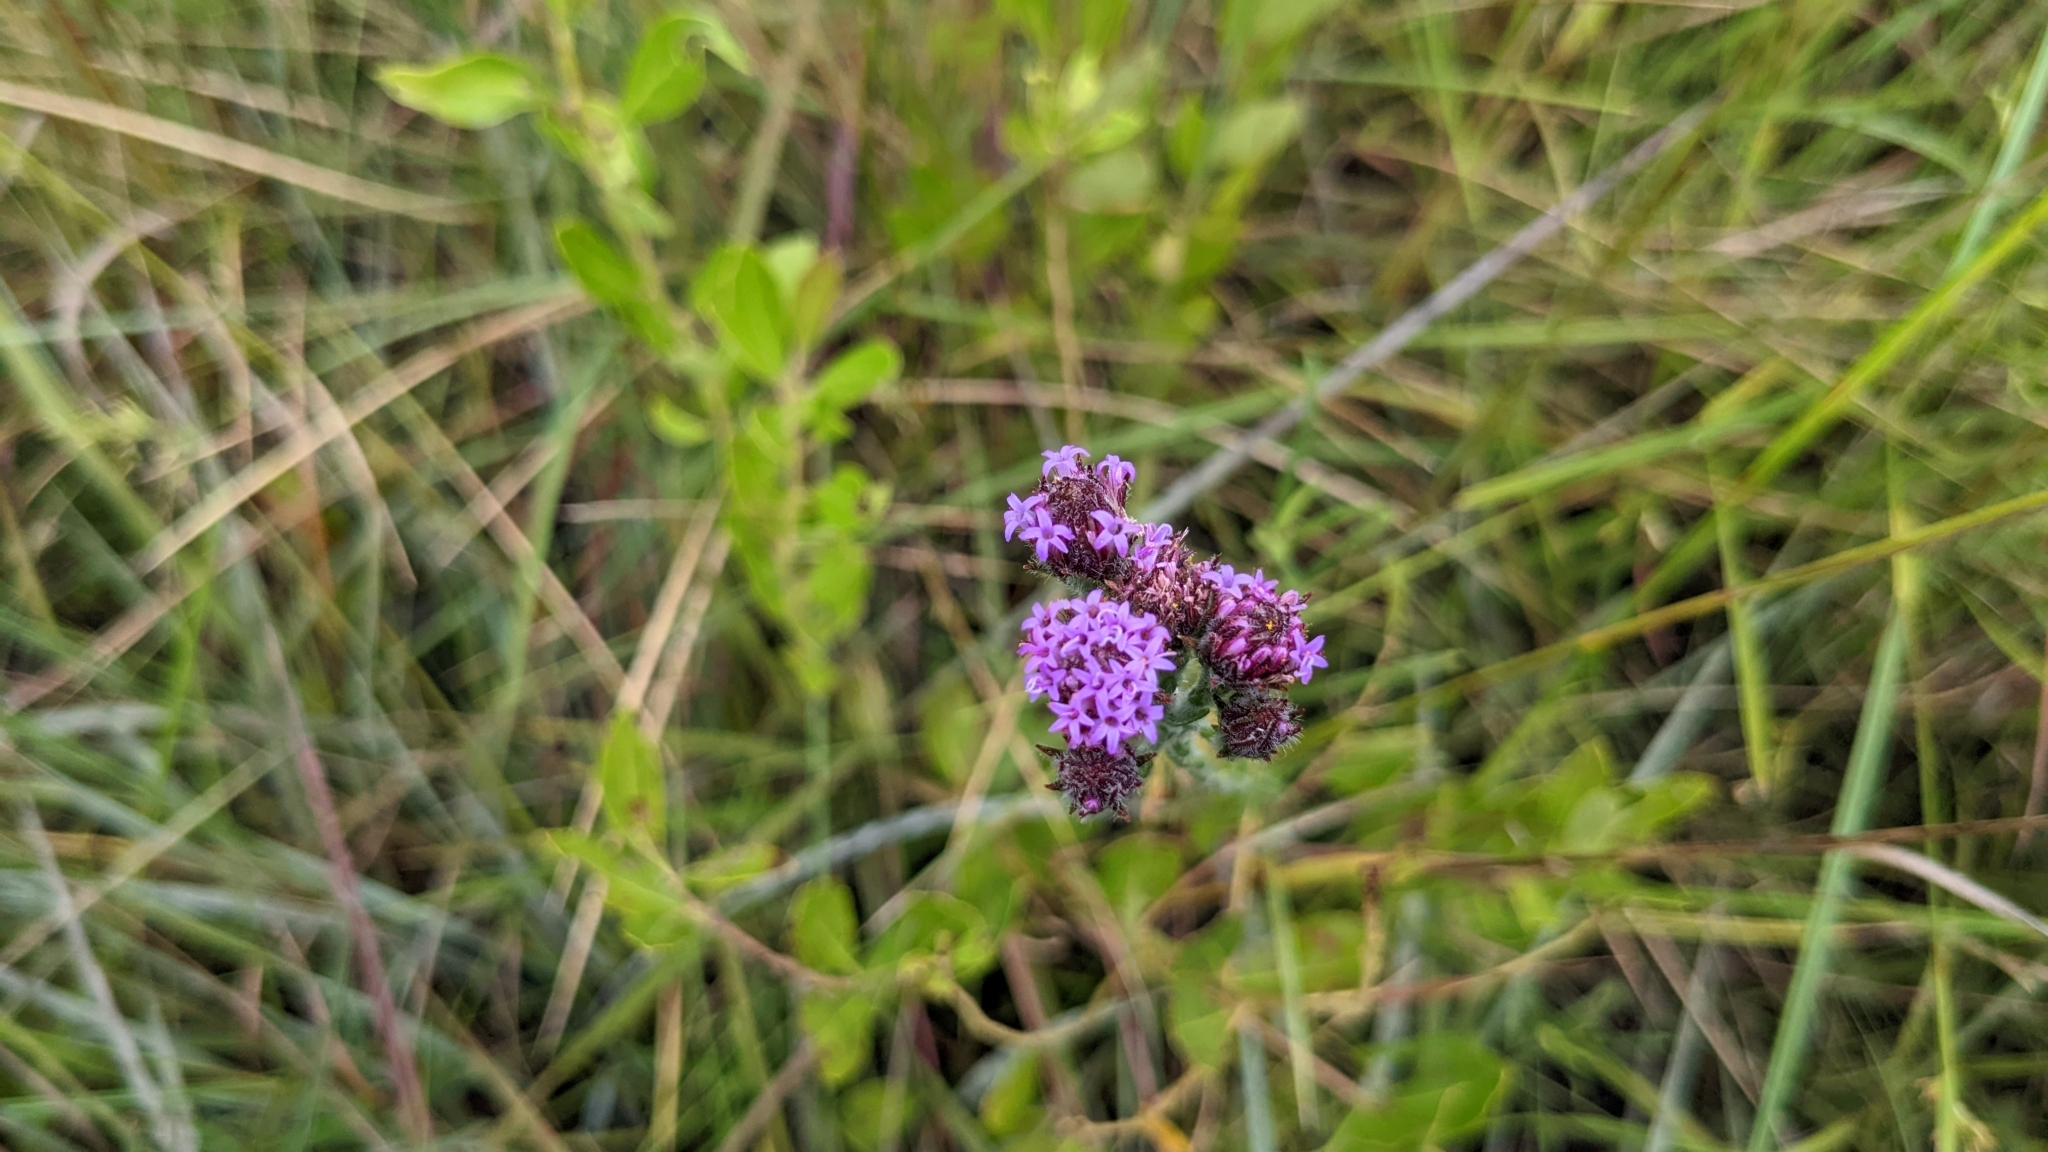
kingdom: Plantae
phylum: Tracheophyta
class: Magnoliopsida
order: Asterales
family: Asteraceae
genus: Carphephorus
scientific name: Carphephorus pseudoliatris
